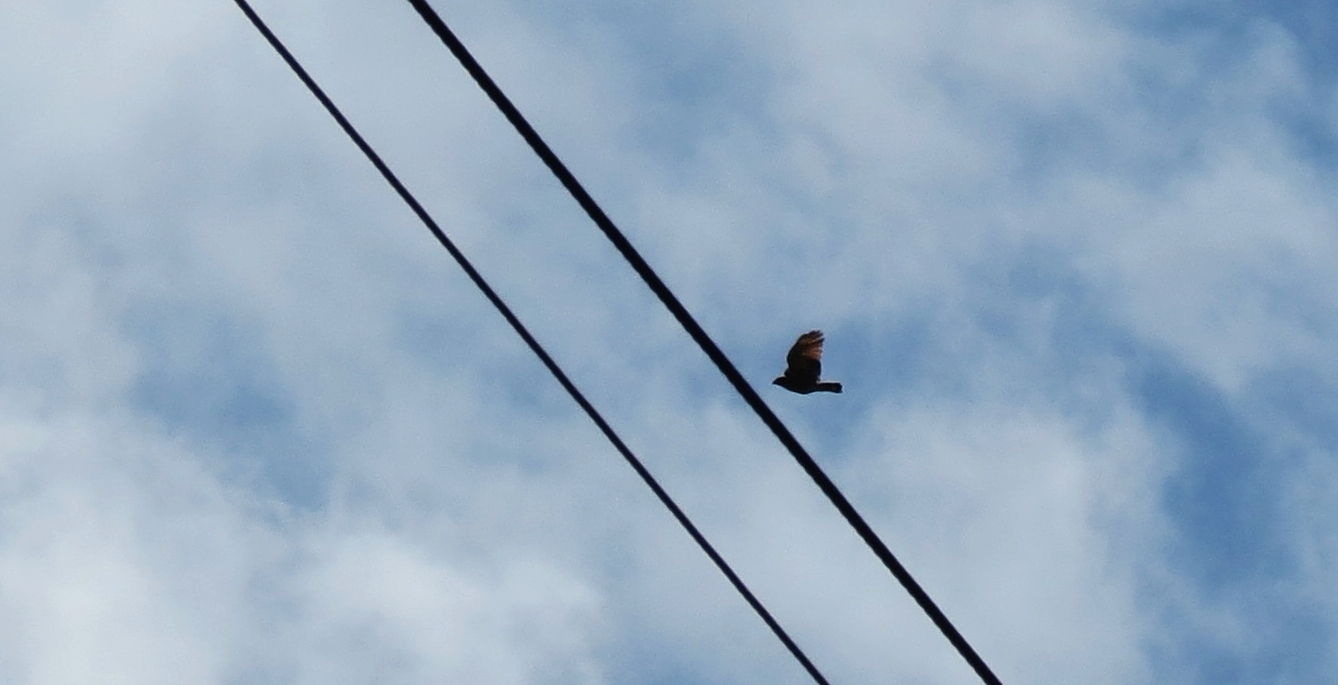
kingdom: Animalia
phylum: Chordata
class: Aves
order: Accipitriformes
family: Accipitridae
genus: Rupornis
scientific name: Rupornis magnirostris
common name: Roadside hawk
